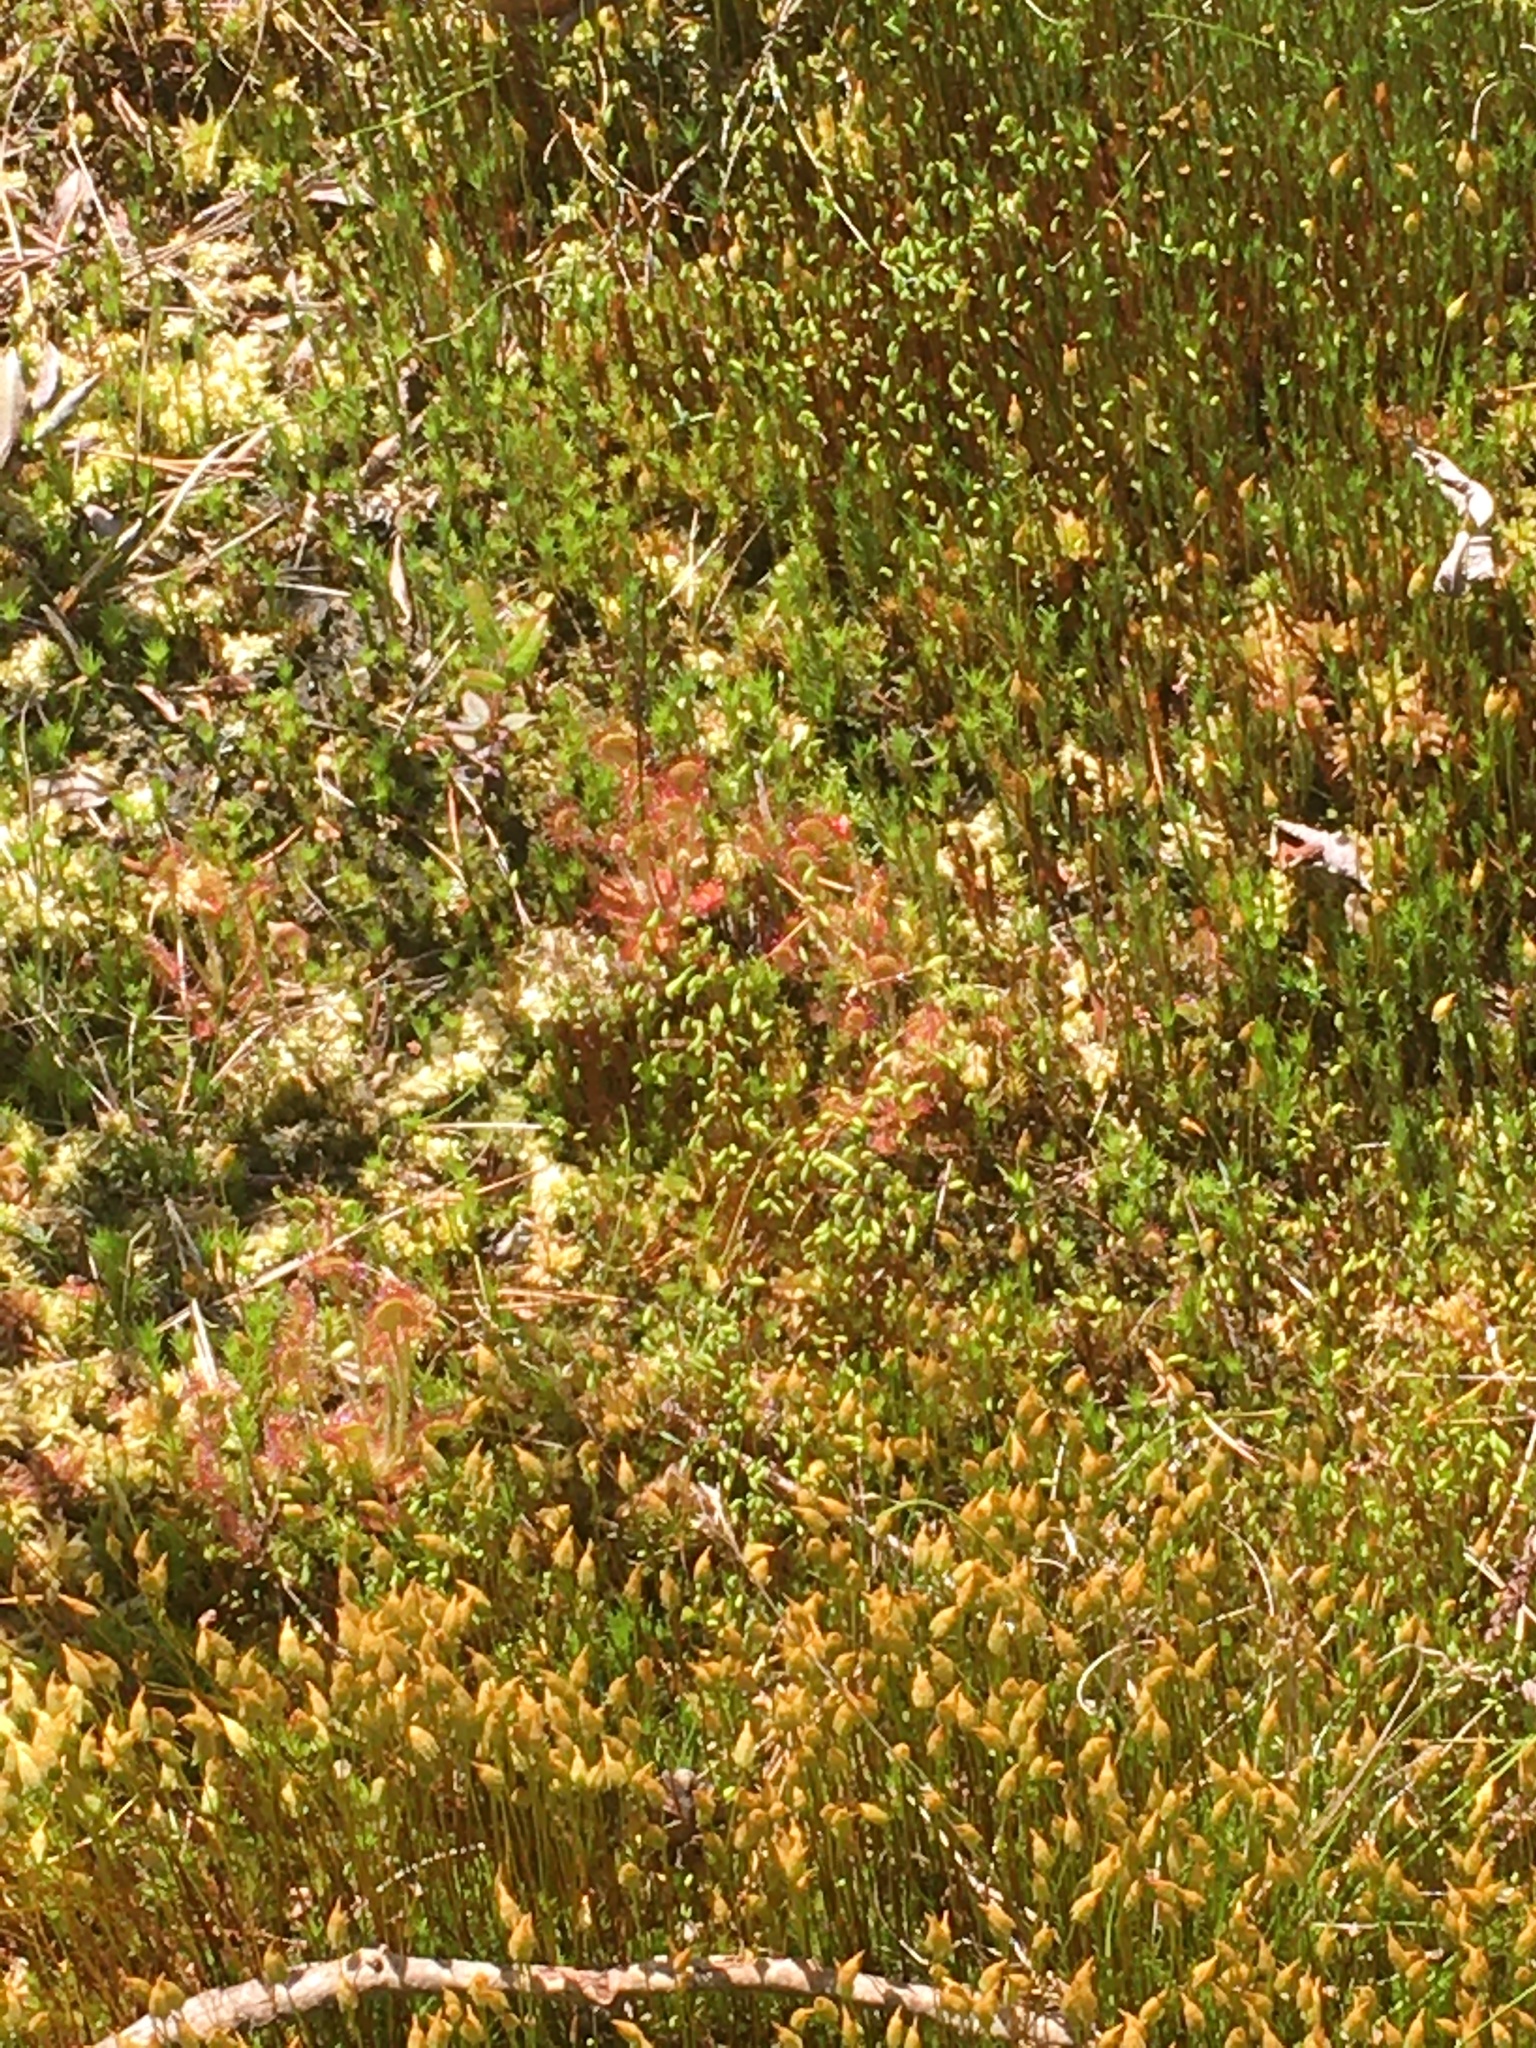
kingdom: Plantae
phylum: Tracheophyta
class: Magnoliopsida
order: Caryophyllales
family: Droseraceae
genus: Drosera
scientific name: Drosera rotundifolia
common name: Round-leaved sundew
